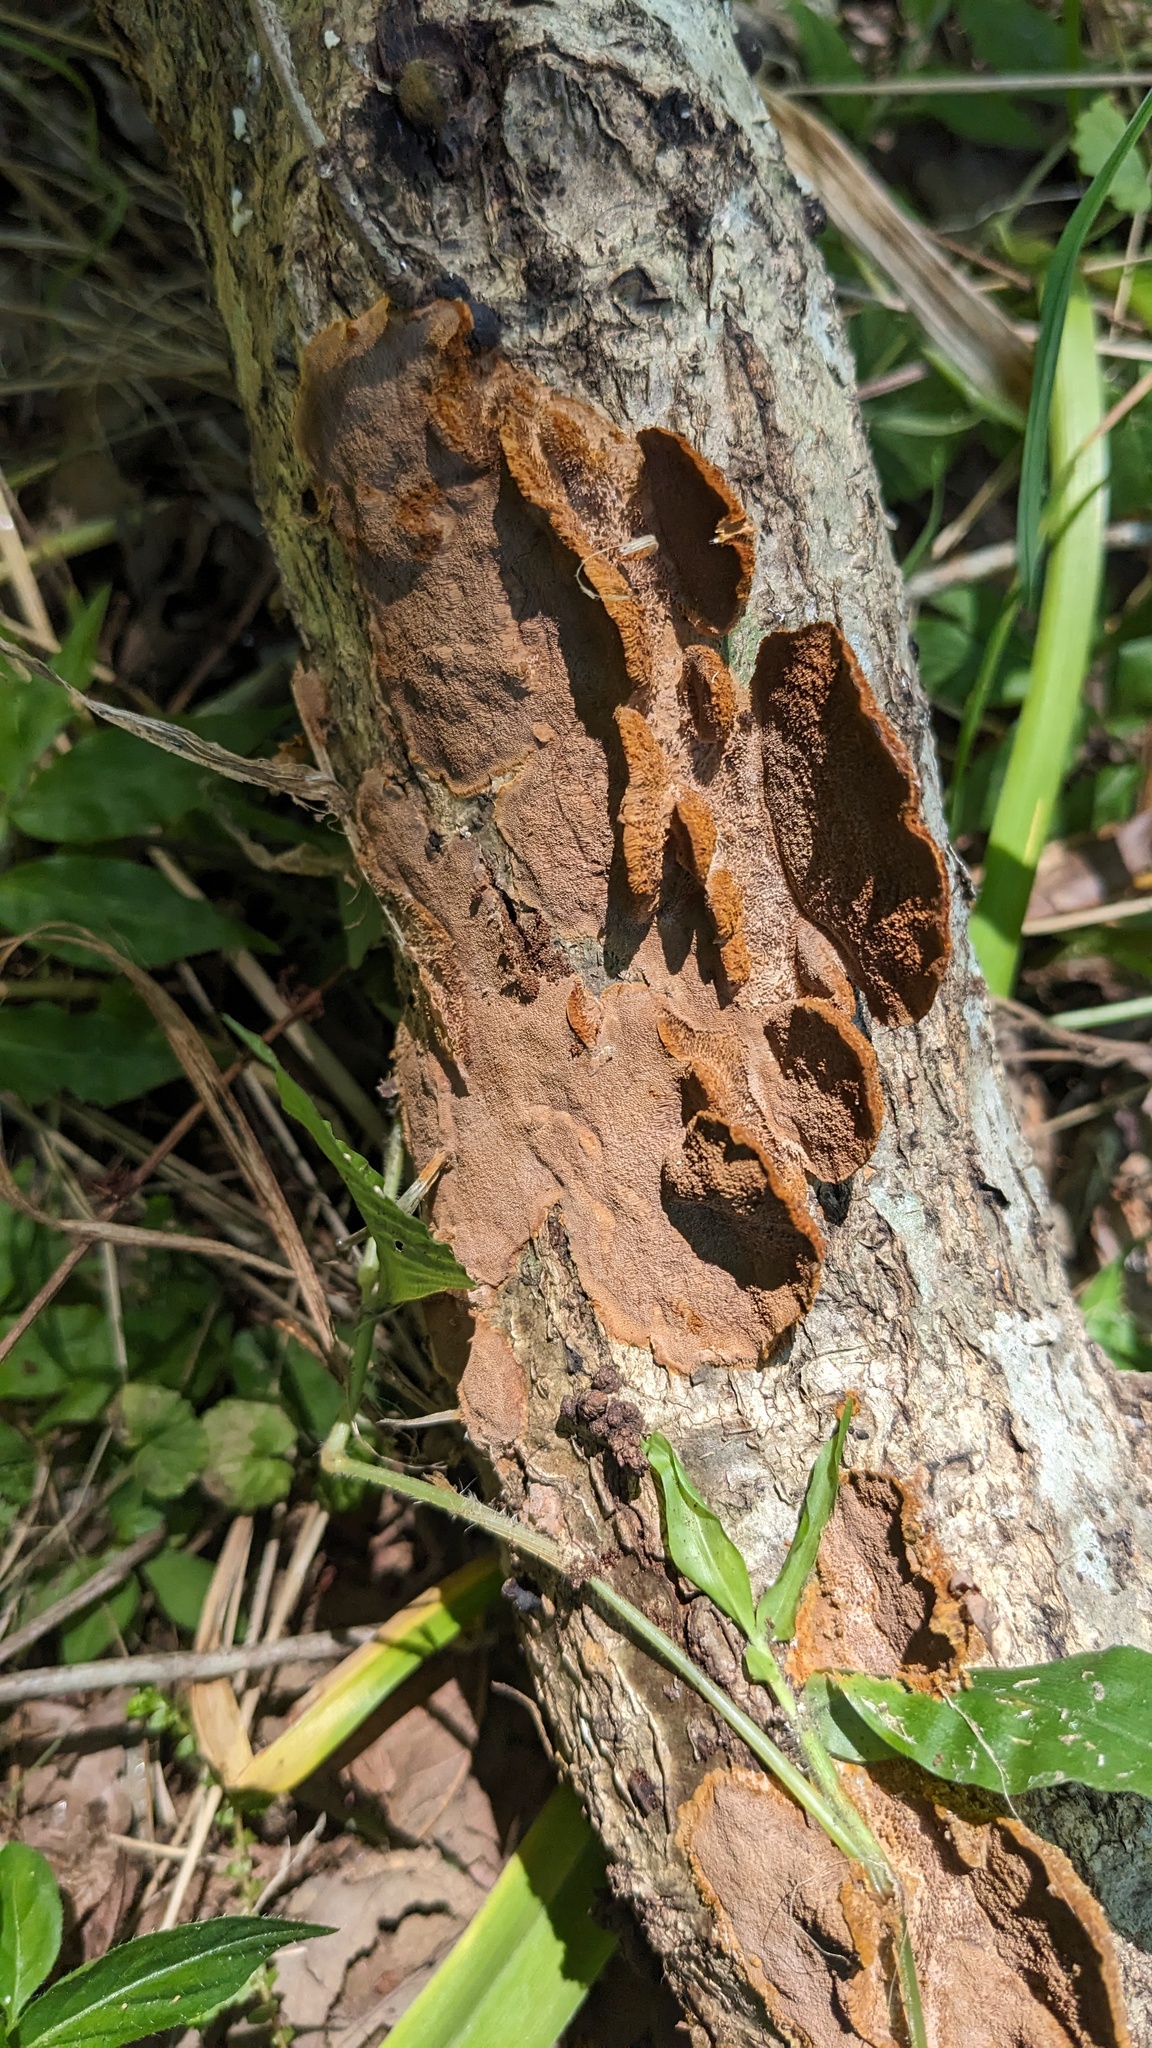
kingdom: Fungi
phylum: Basidiomycota
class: Agaricomycetes
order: Hymenochaetales
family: Hymenochaetaceae
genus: Phellinus
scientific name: Phellinus gilvus
